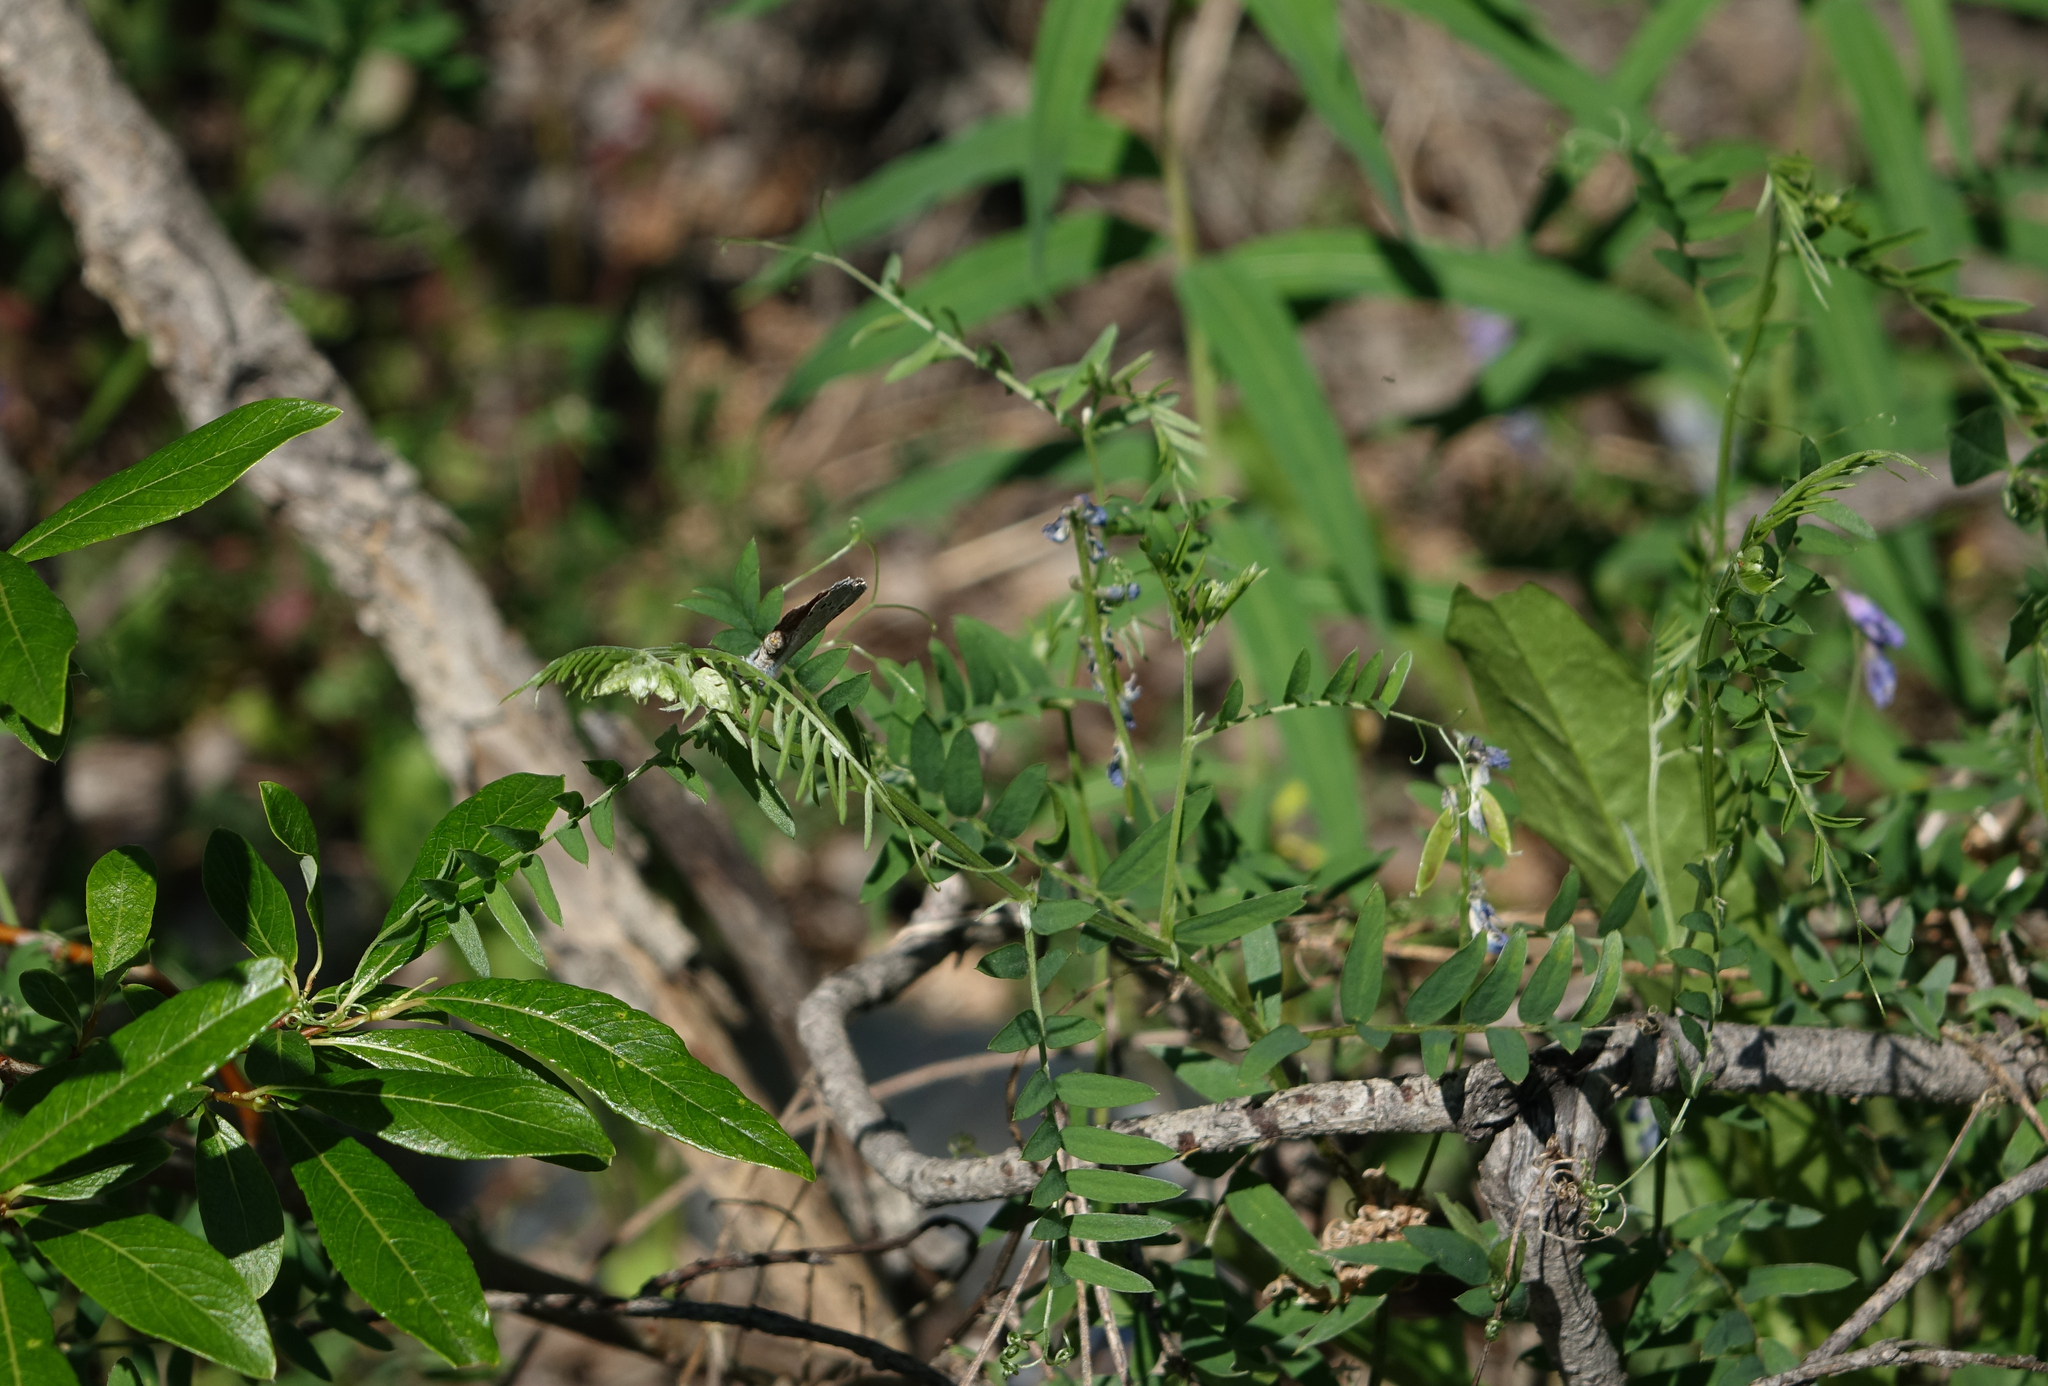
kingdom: Plantae
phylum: Tracheophyta
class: Magnoliopsida
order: Fabales
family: Fabaceae
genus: Vicia
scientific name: Vicia cracca
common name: Bird vetch
